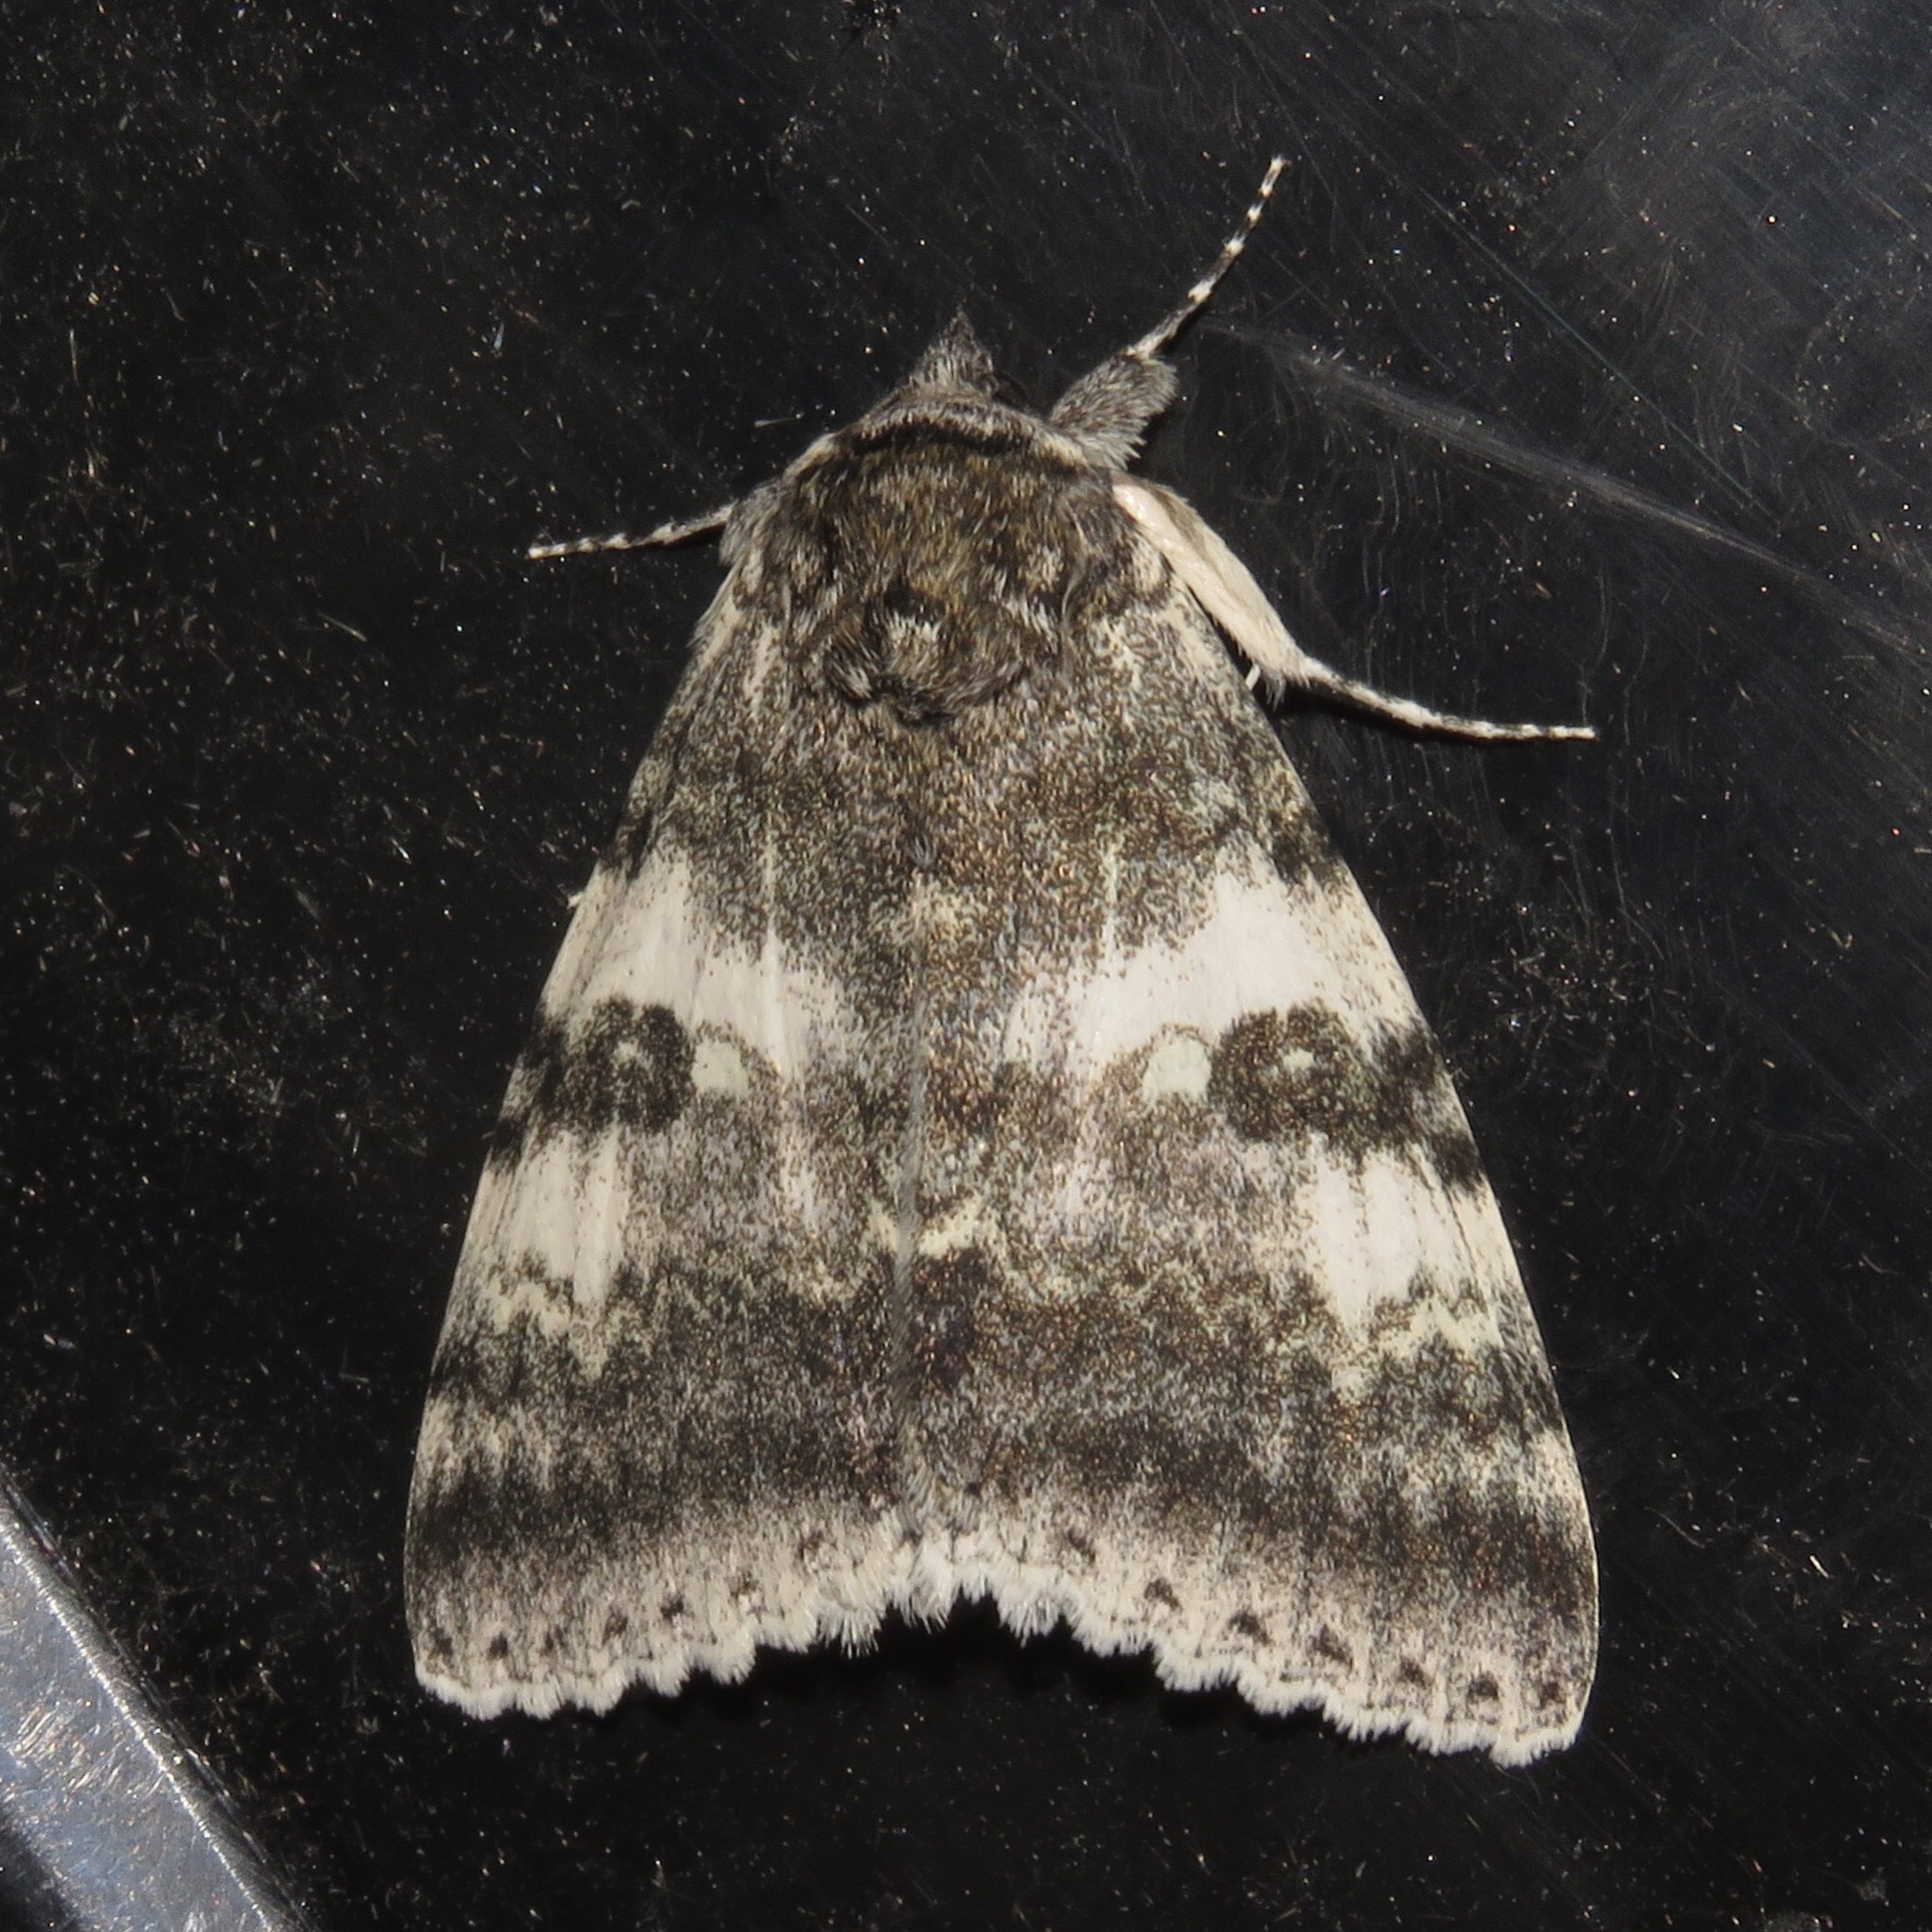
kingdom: Animalia
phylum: Arthropoda
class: Insecta
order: Lepidoptera
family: Erebidae
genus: Catocala
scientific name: Catocala relicta
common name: White underwing
